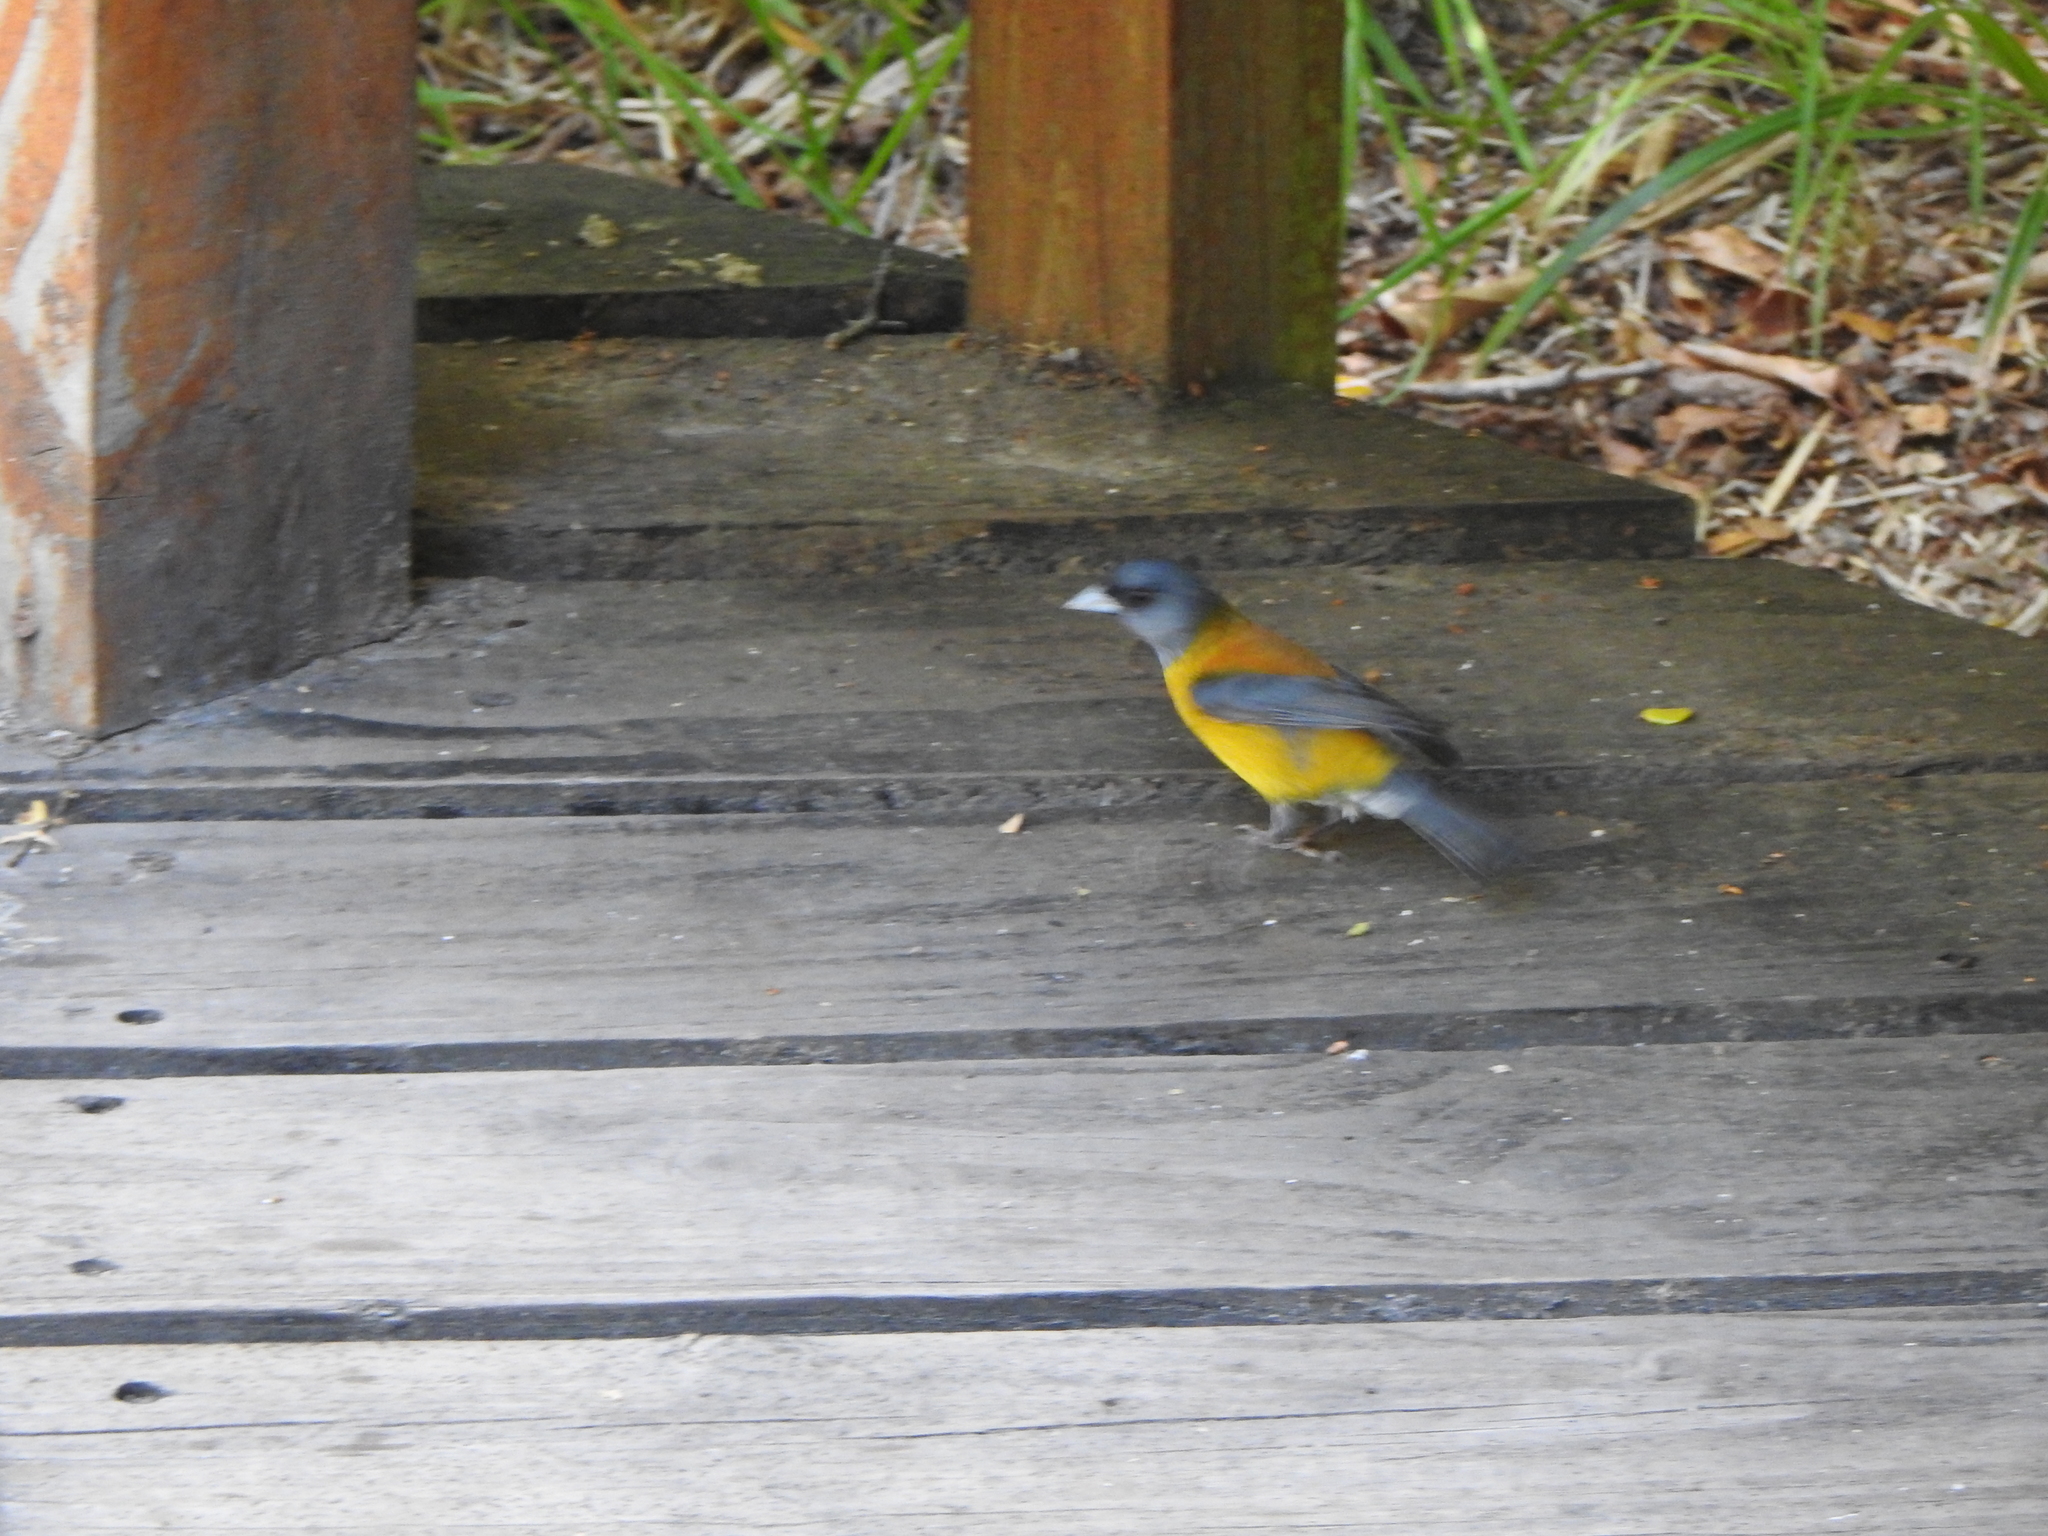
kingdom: Animalia
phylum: Chordata
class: Aves
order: Passeriformes
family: Thraupidae
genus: Phrygilus
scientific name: Phrygilus patagonicus
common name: Patagonian sierra finch
